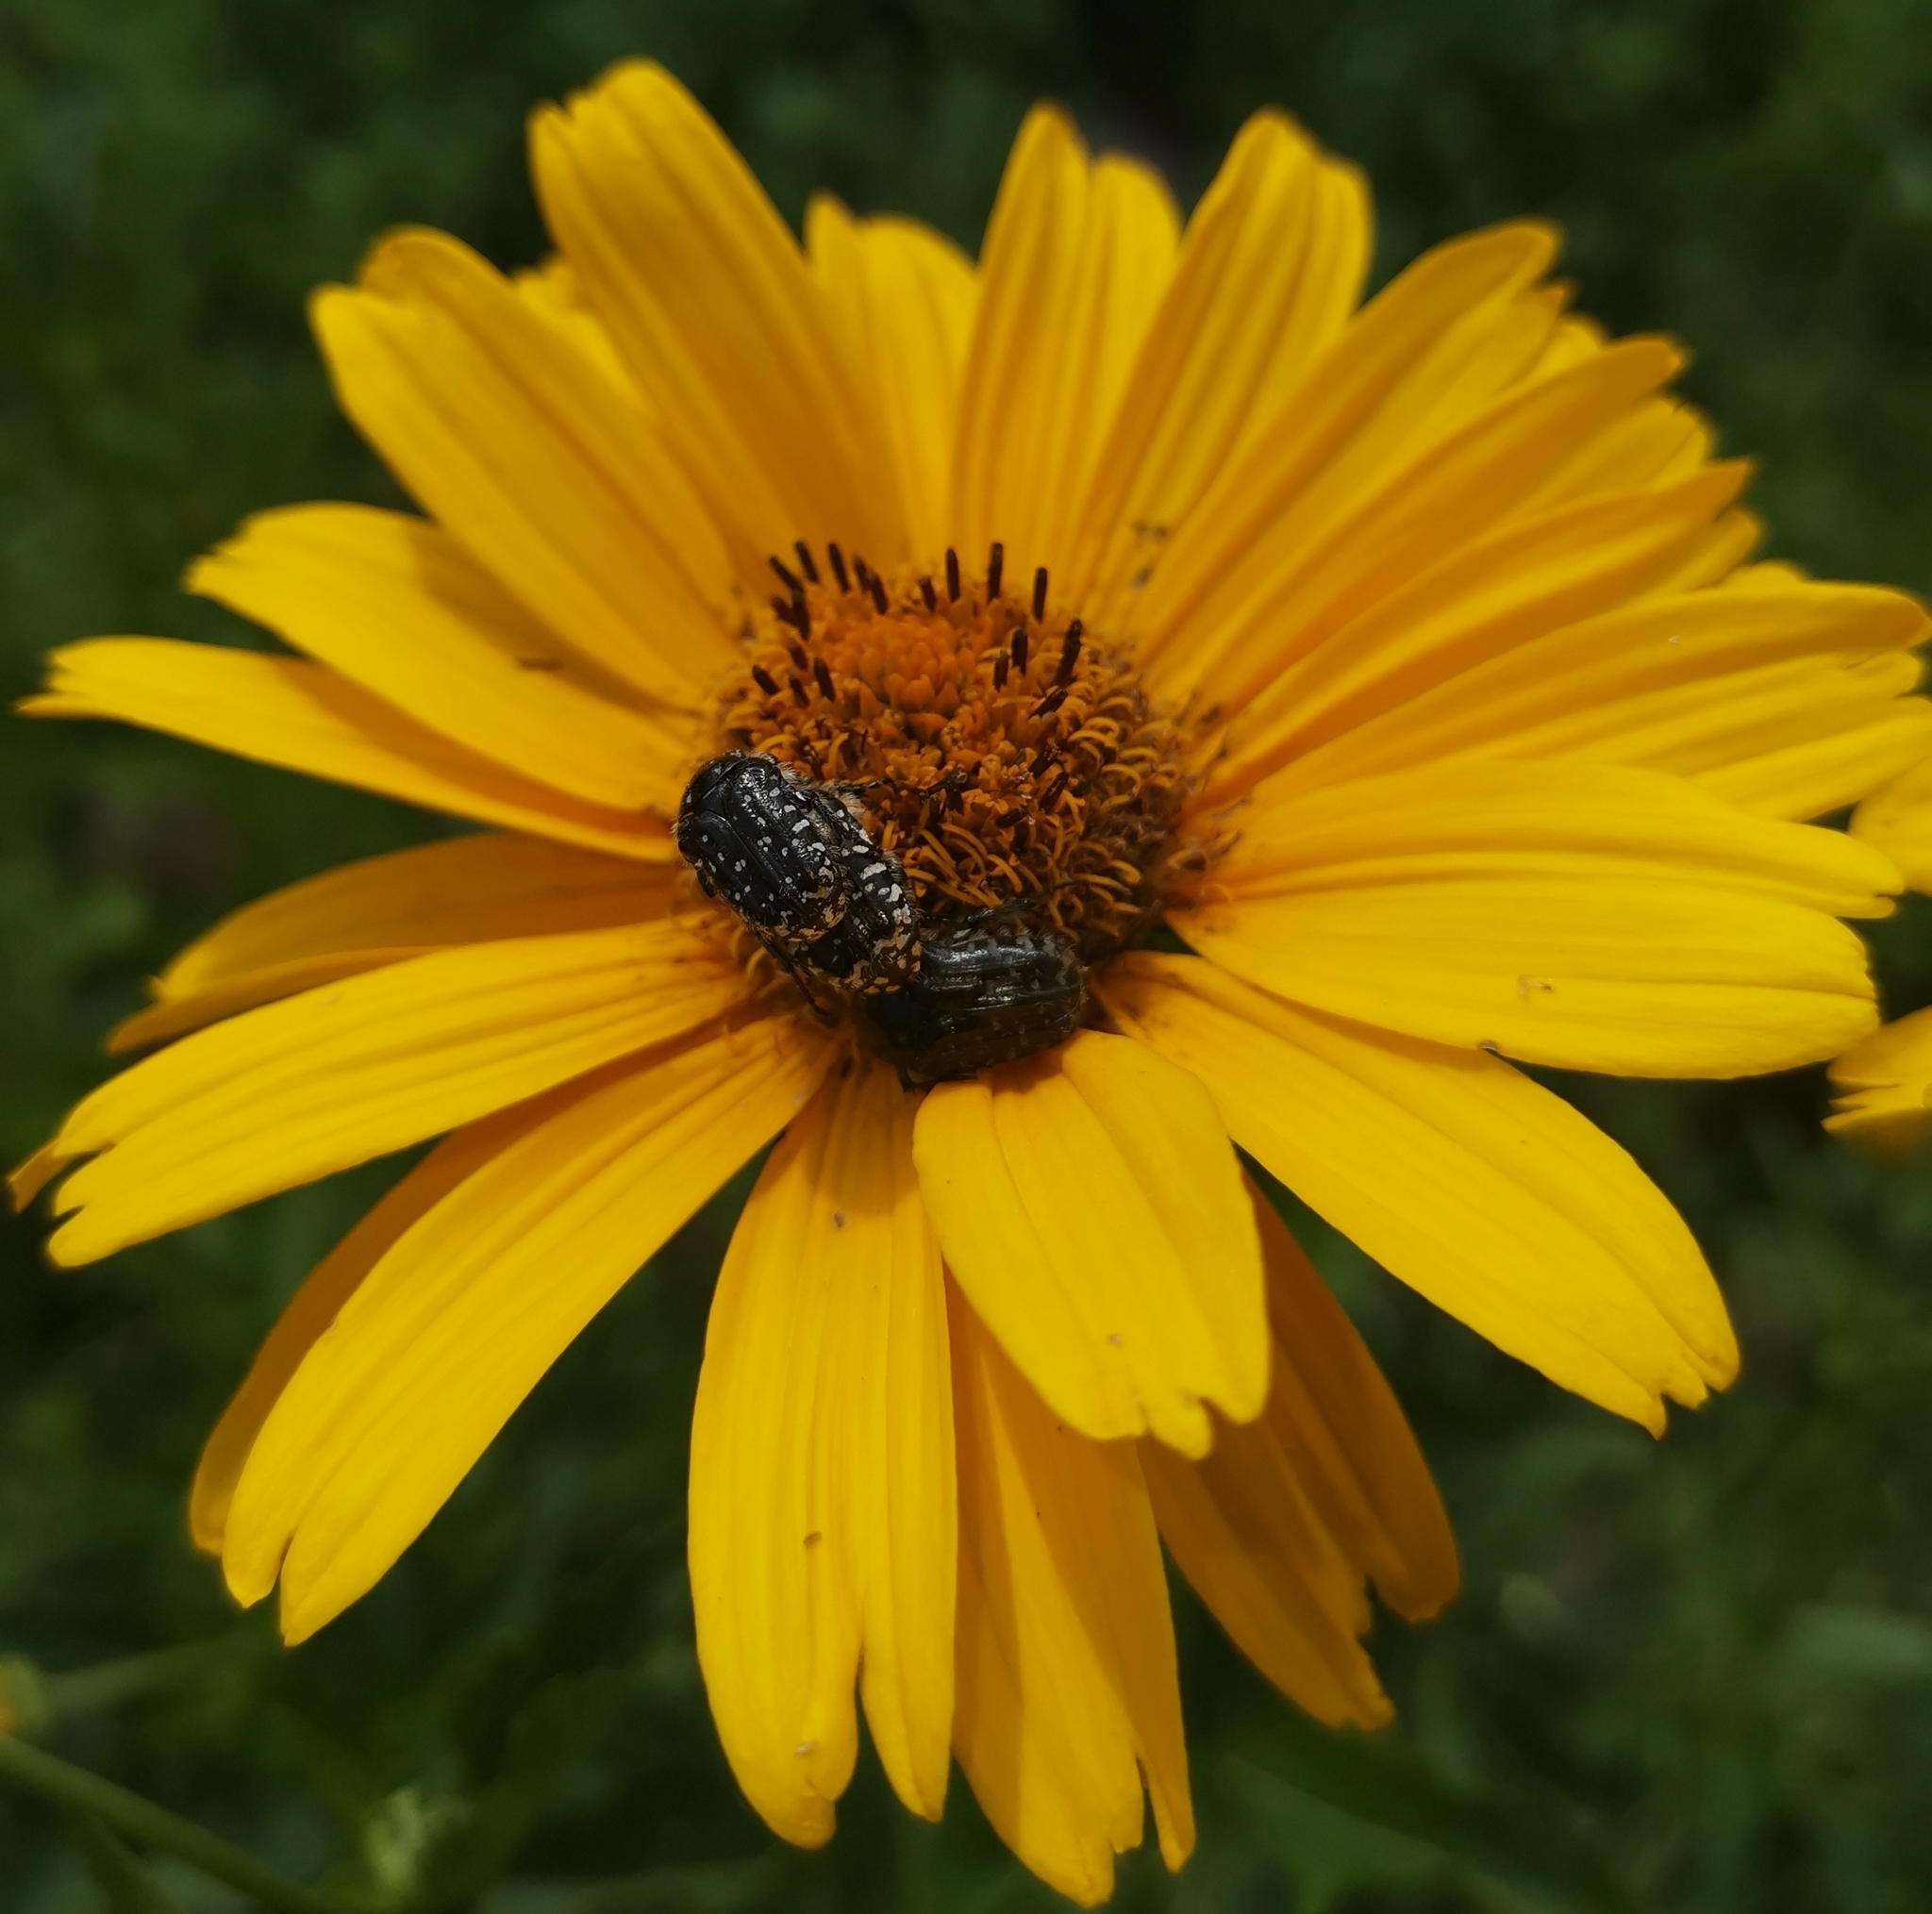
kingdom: Animalia
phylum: Arthropoda
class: Insecta
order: Coleoptera
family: Scarabaeidae
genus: Oxythyrea
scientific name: Oxythyrea funesta
